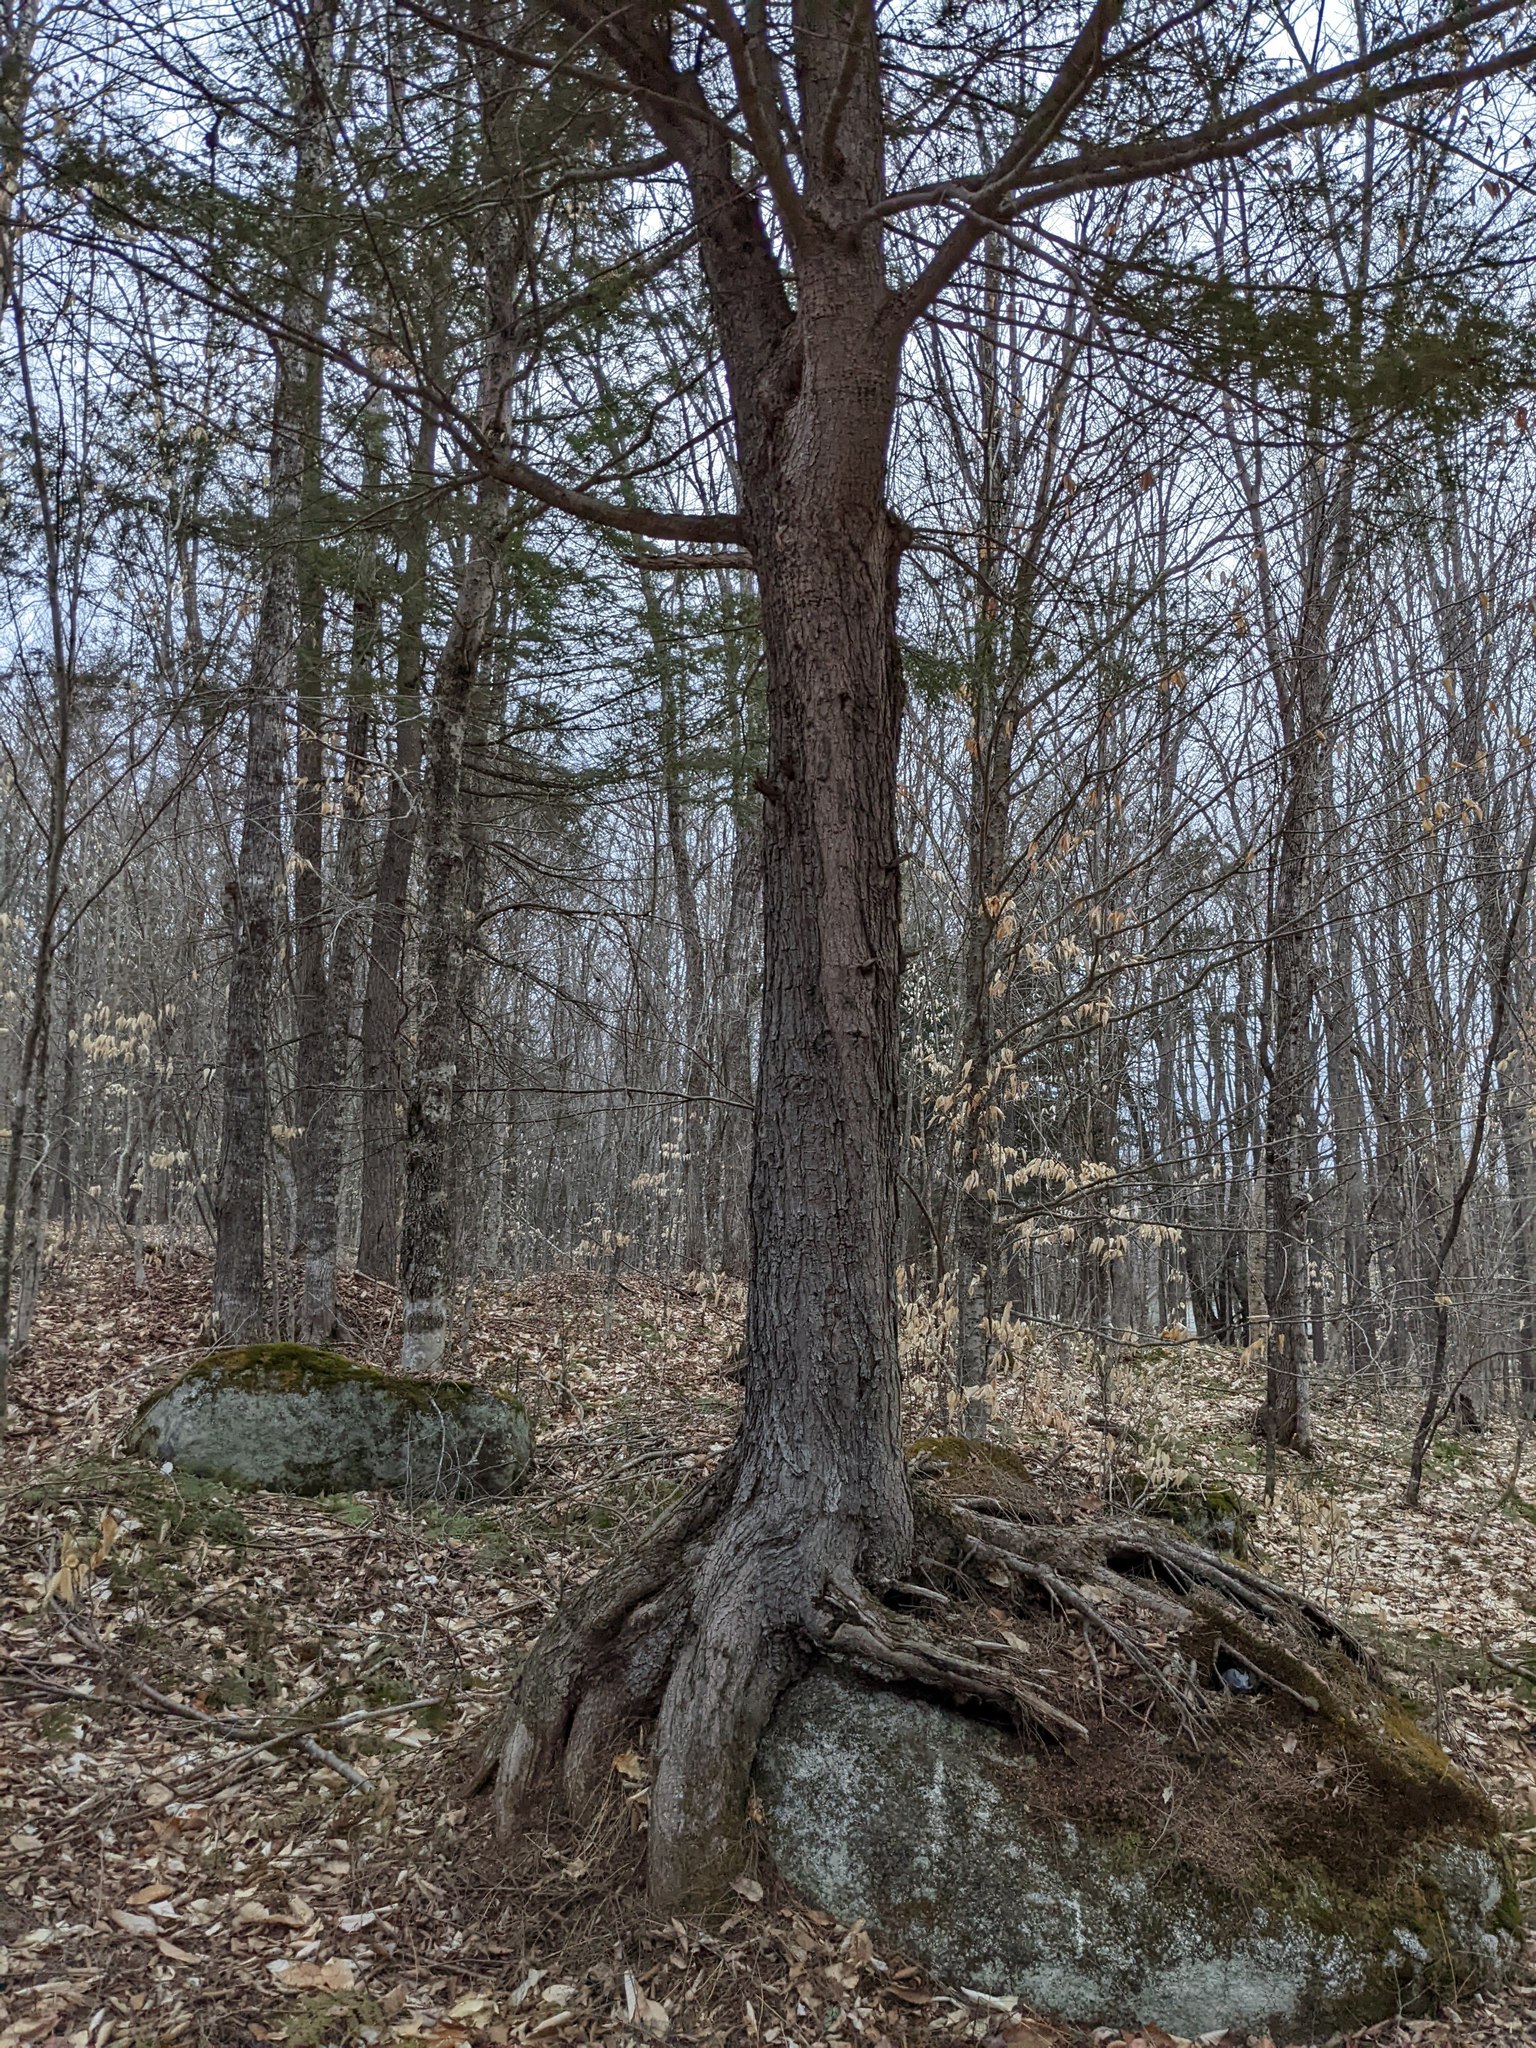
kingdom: Plantae
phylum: Tracheophyta
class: Pinopsida
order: Pinales
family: Pinaceae
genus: Tsuga
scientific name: Tsuga canadensis
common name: Eastern hemlock
